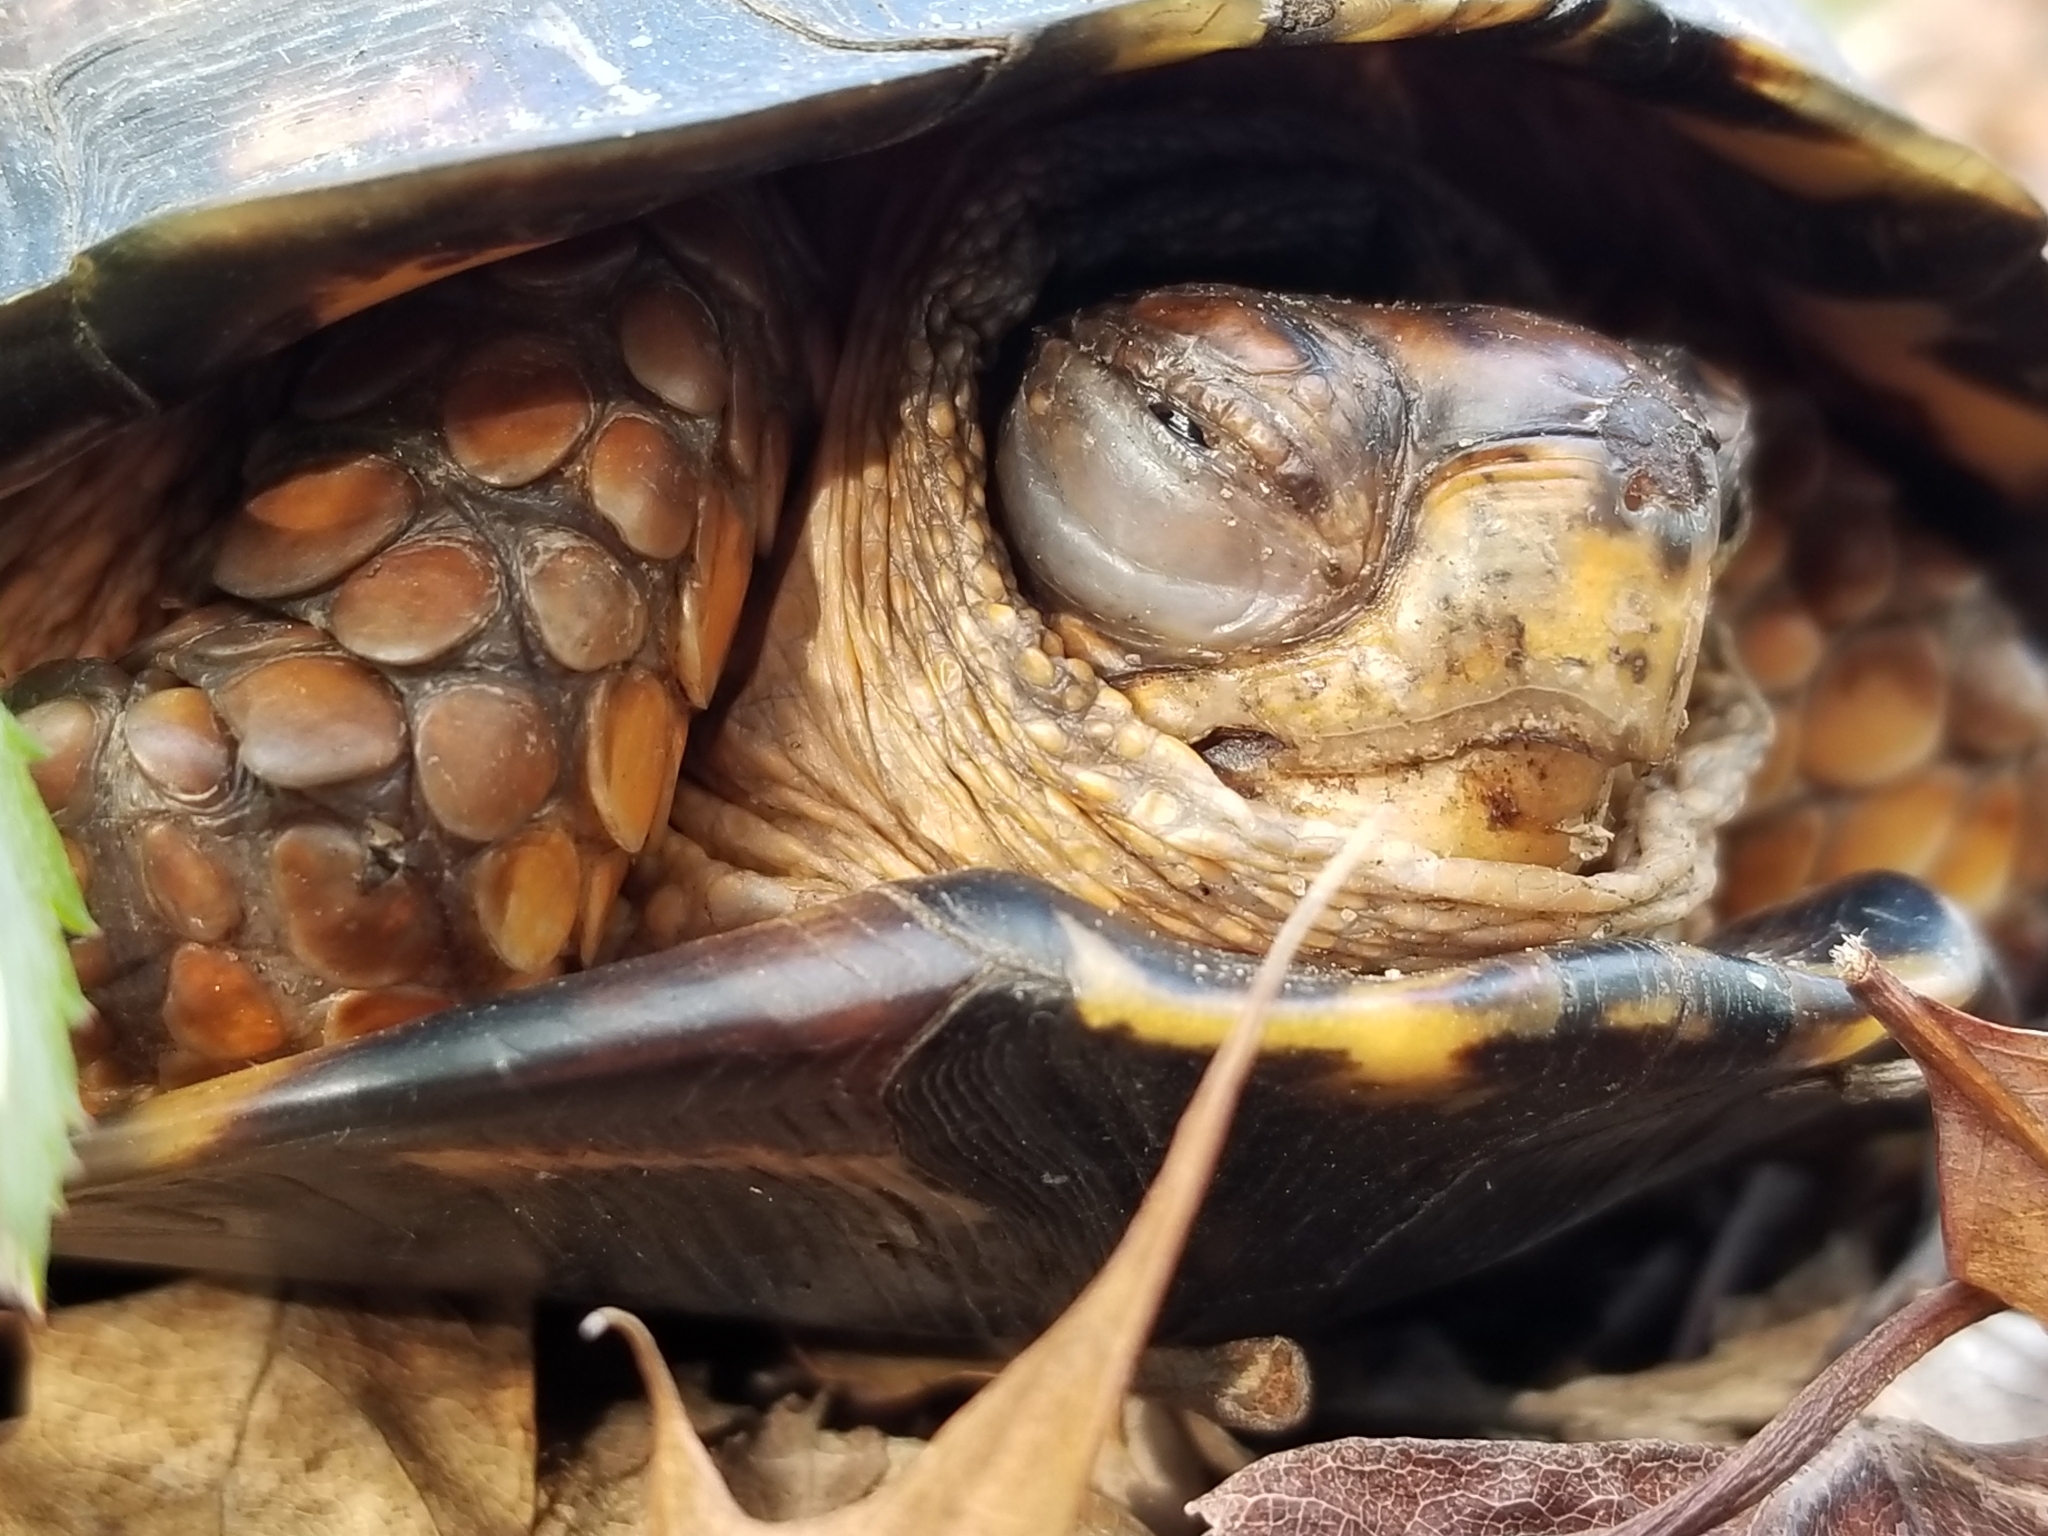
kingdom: Animalia
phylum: Chordata
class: Testudines
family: Emydidae
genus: Terrapene
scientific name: Terrapene carolina
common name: Common box turtle
